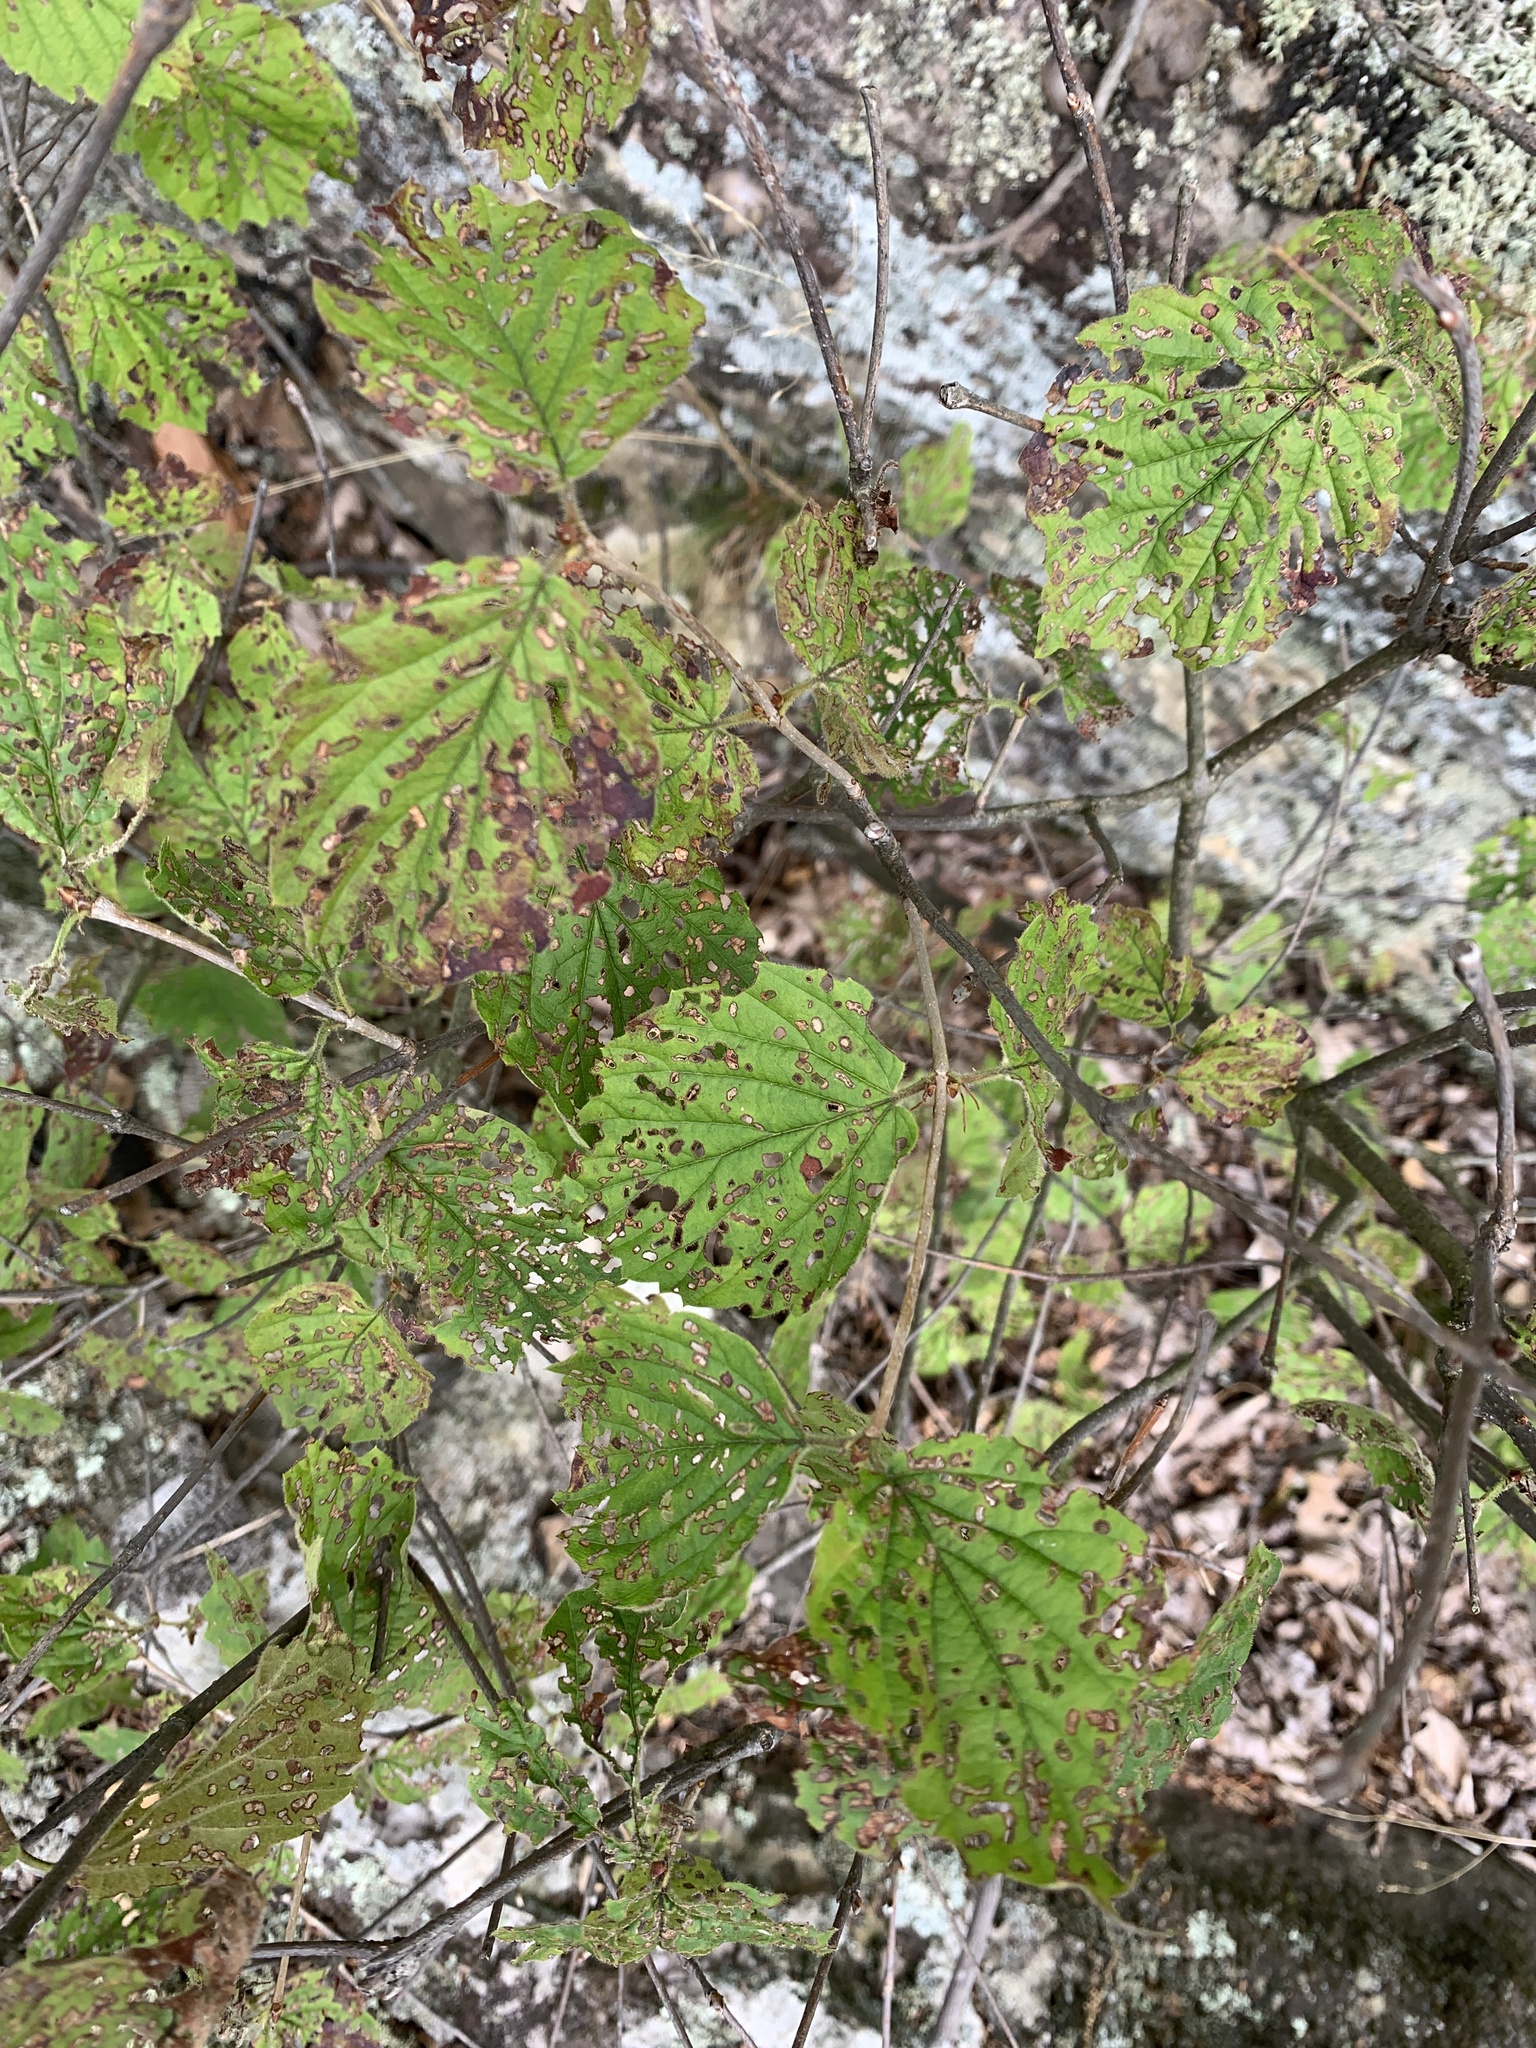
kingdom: Plantae
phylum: Tracheophyta
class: Magnoliopsida
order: Dipsacales
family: Viburnaceae
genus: Viburnum
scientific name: Viburnum rafinesqueanum
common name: Downy arrow-wood
